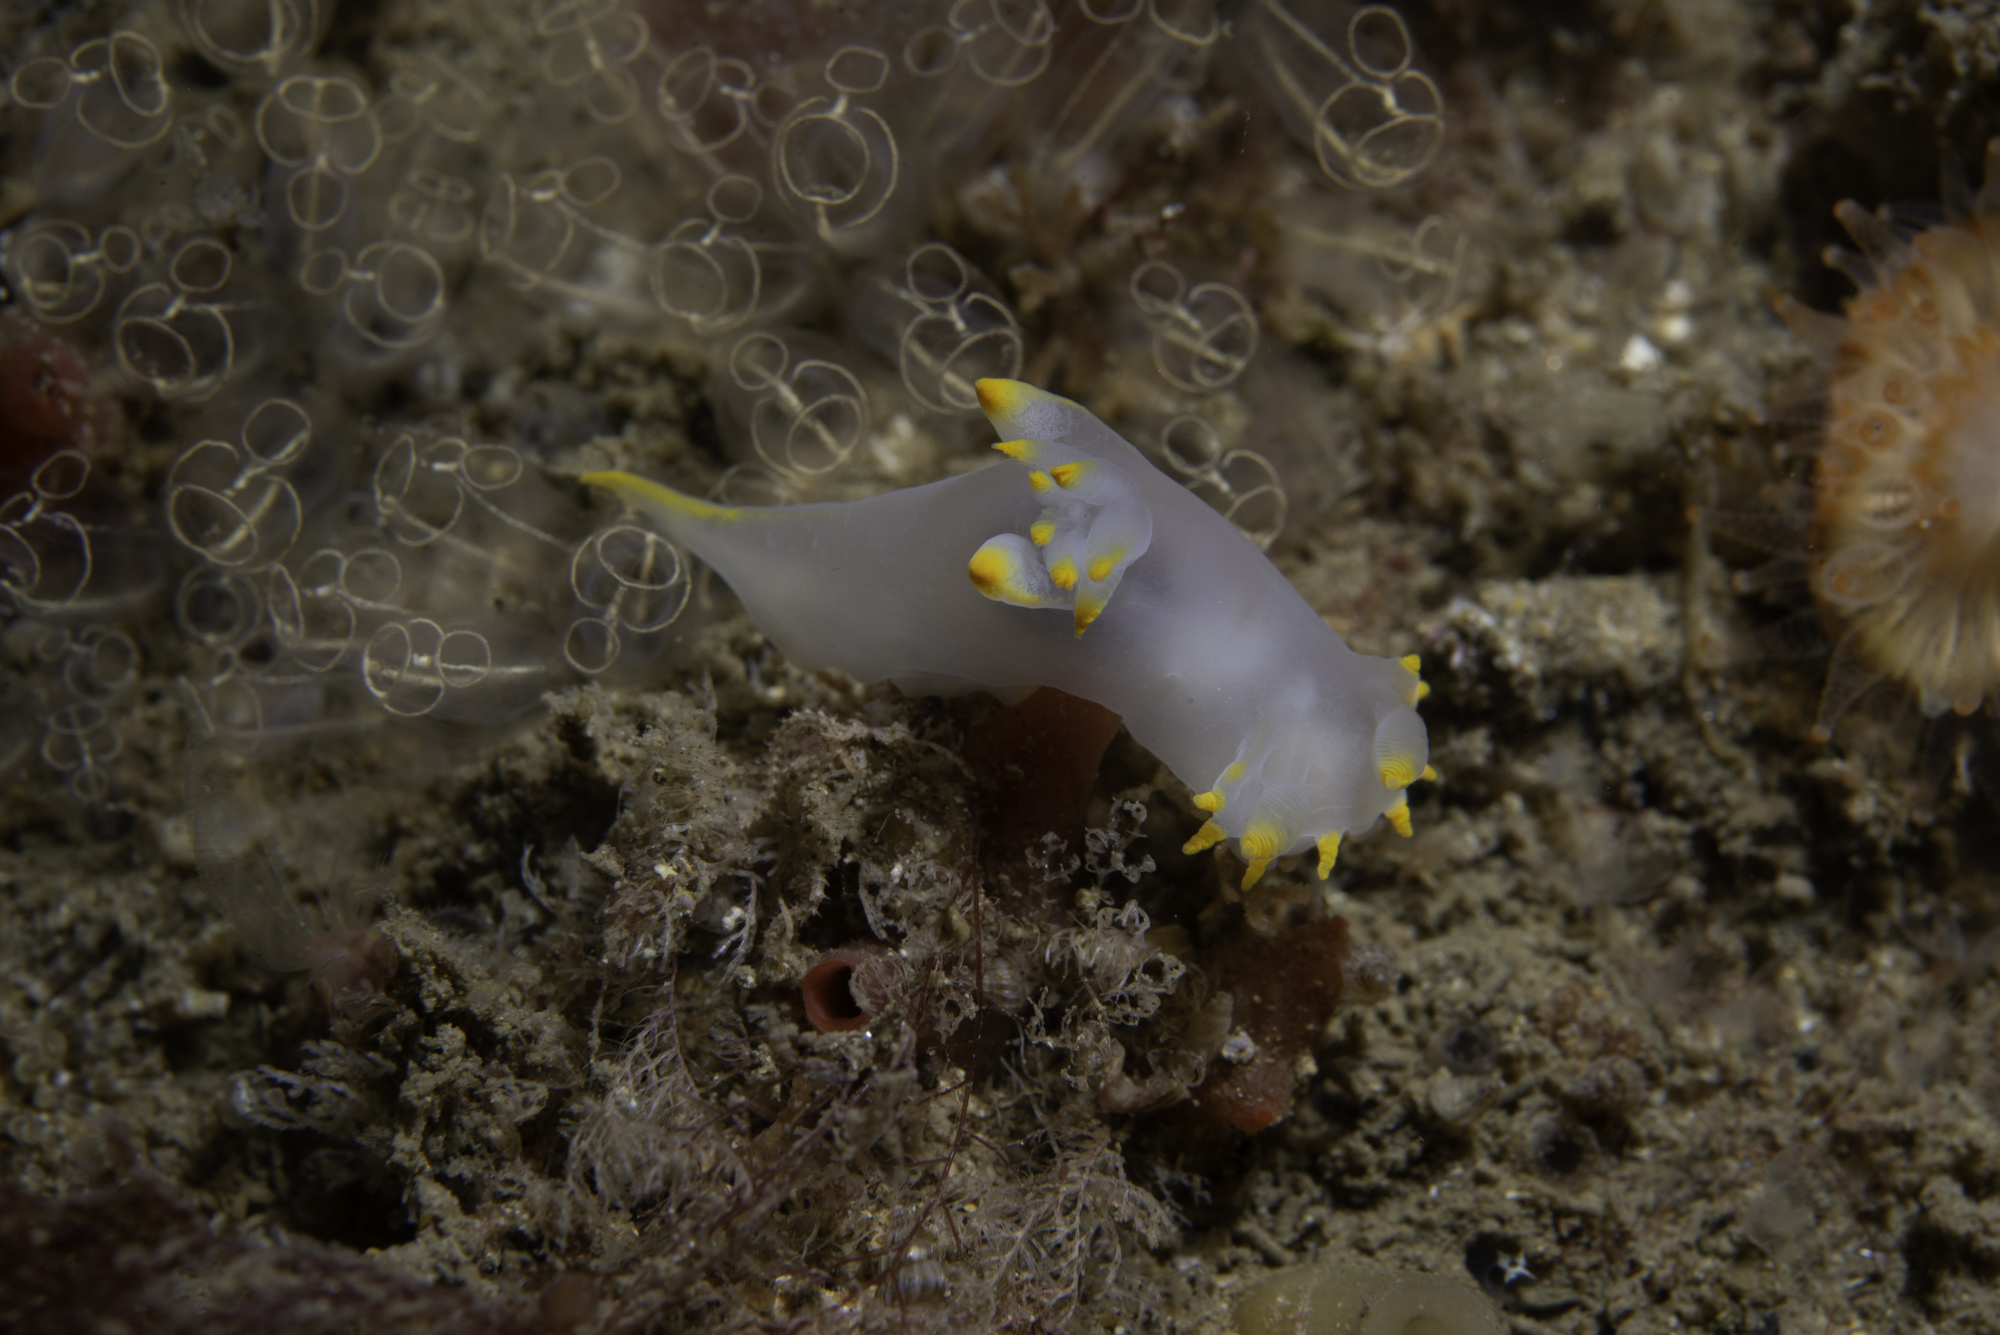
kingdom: Animalia
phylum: Mollusca
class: Gastropoda
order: Nudibranchia
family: Polyceridae
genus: Polycera
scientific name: Polycera kernowensis
